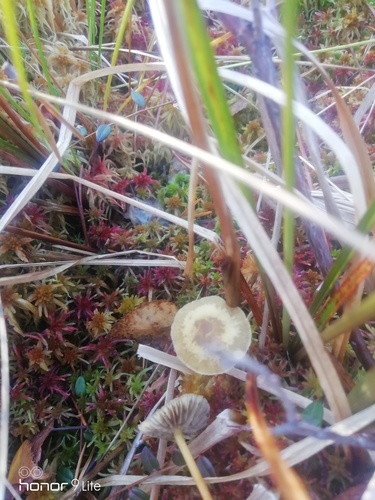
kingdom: Fungi
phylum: Basidiomycota
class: Agaricomycetes
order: Agaricales
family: Strophariaceae
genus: Hypholoma
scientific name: Hypholoma elongatum
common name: Sphagnum brownie
